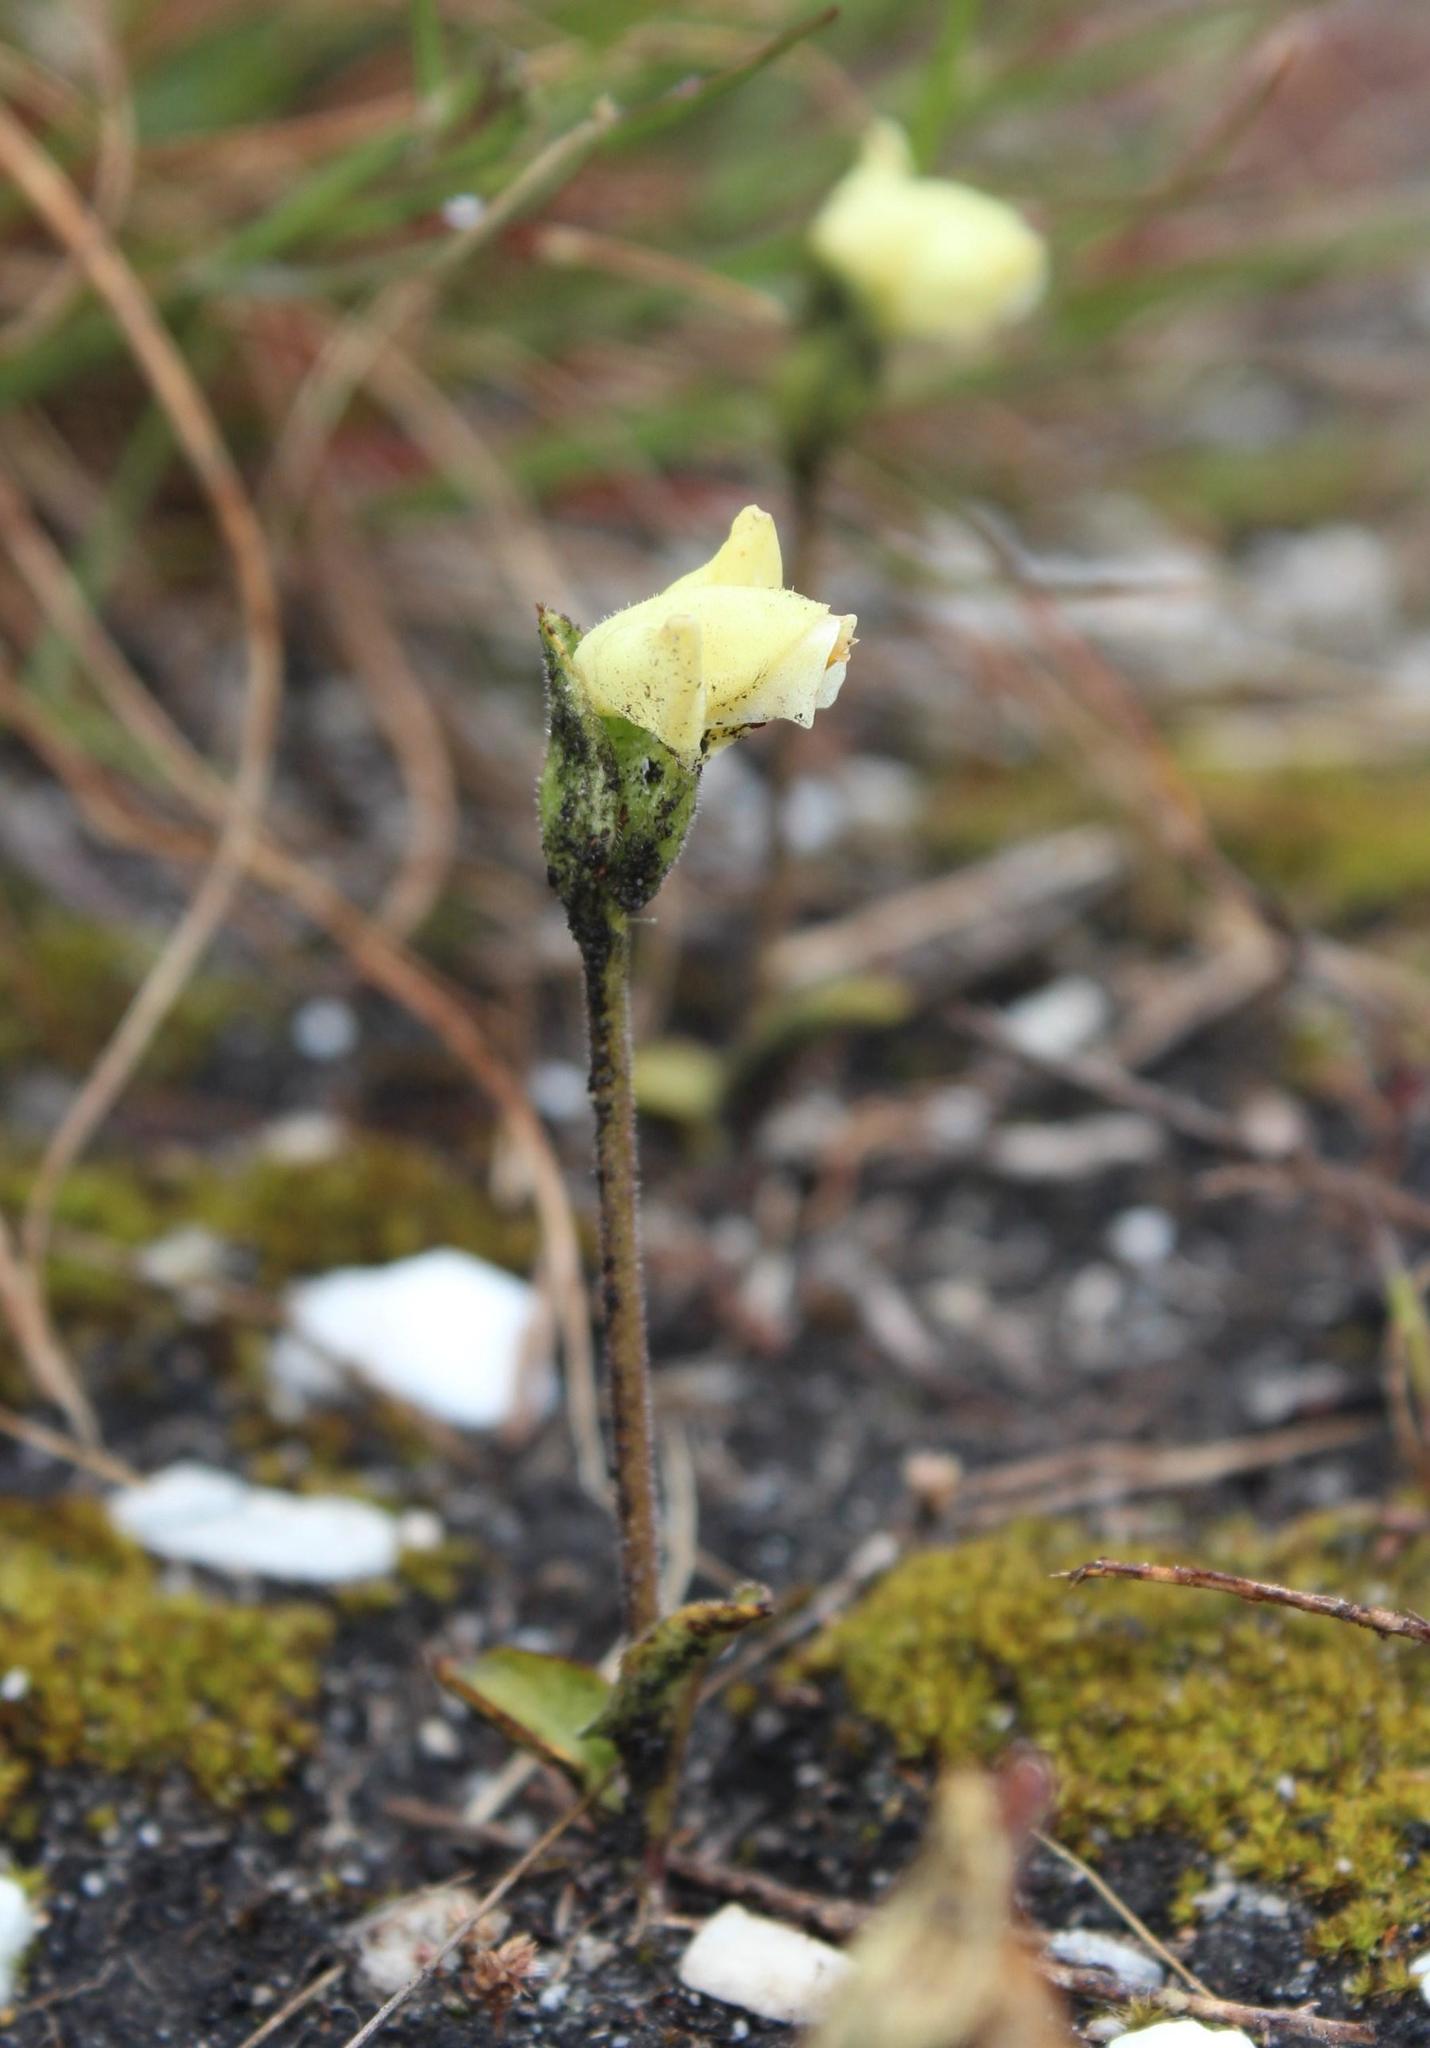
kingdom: Plantae
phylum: Tracheophyta
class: Liliopsida
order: Asparagales
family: Orchidaceae
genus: Disperis
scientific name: Disperis villosa
